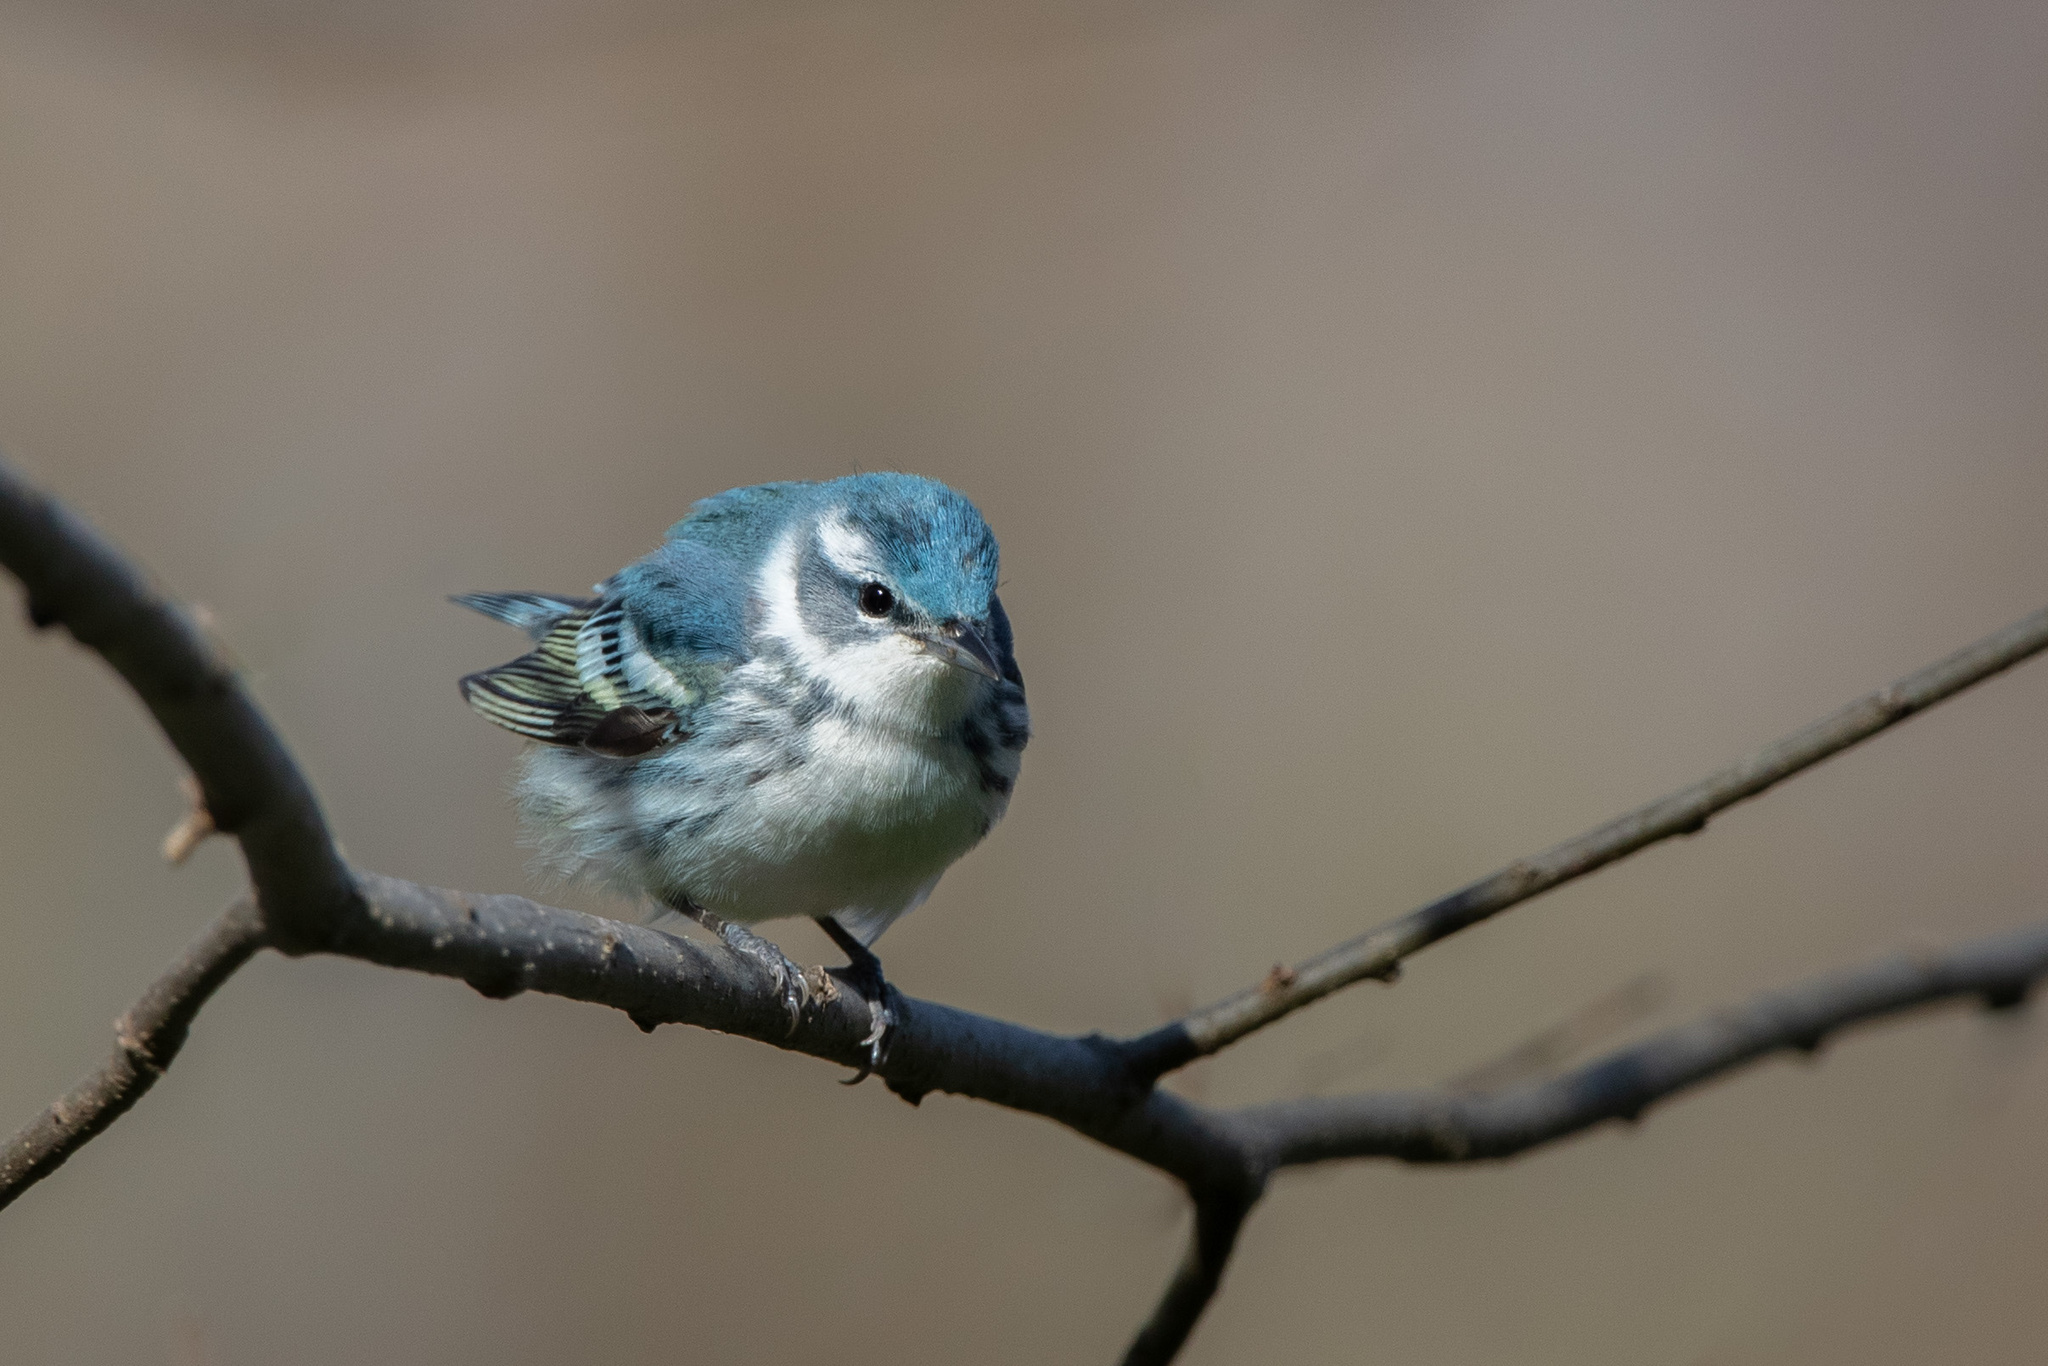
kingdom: Animalia
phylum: Chordata
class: Aves
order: Passeriformes
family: Parulidae
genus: Setophaga
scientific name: Setophaga cerulea
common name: Cerulean warbler
